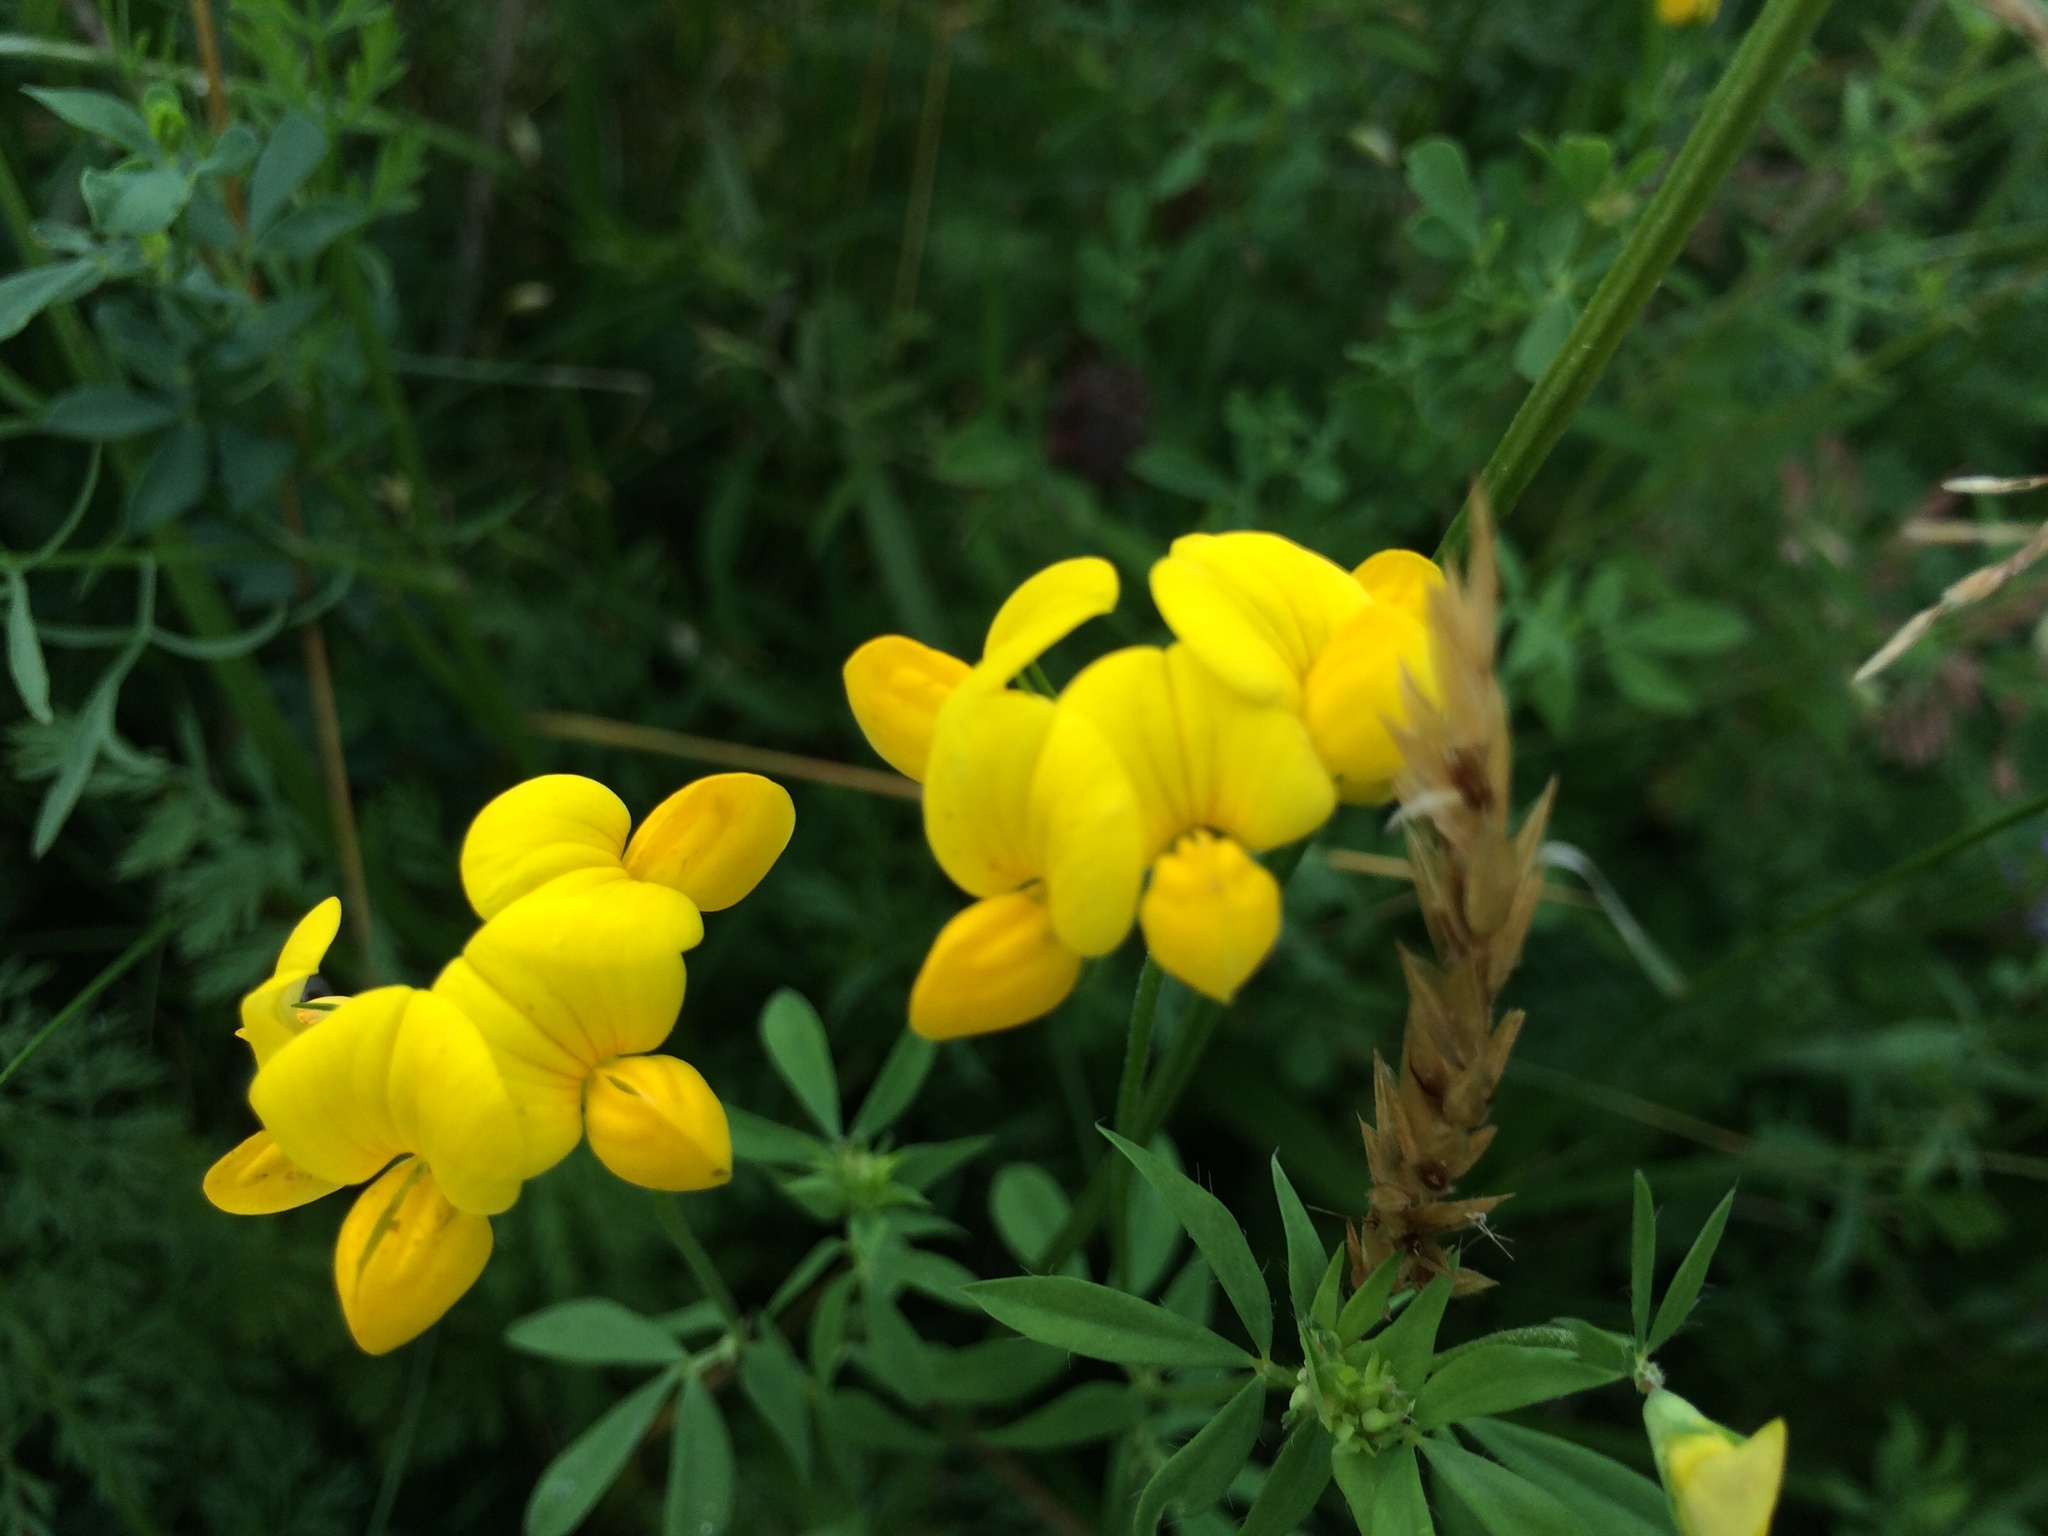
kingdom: Plantae
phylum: Tracheophyta
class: Magnoliopsida
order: Fabales
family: Fabaceae
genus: Lotus
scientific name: Lotus corniculatus
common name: Common bird's-foot-trefoil
